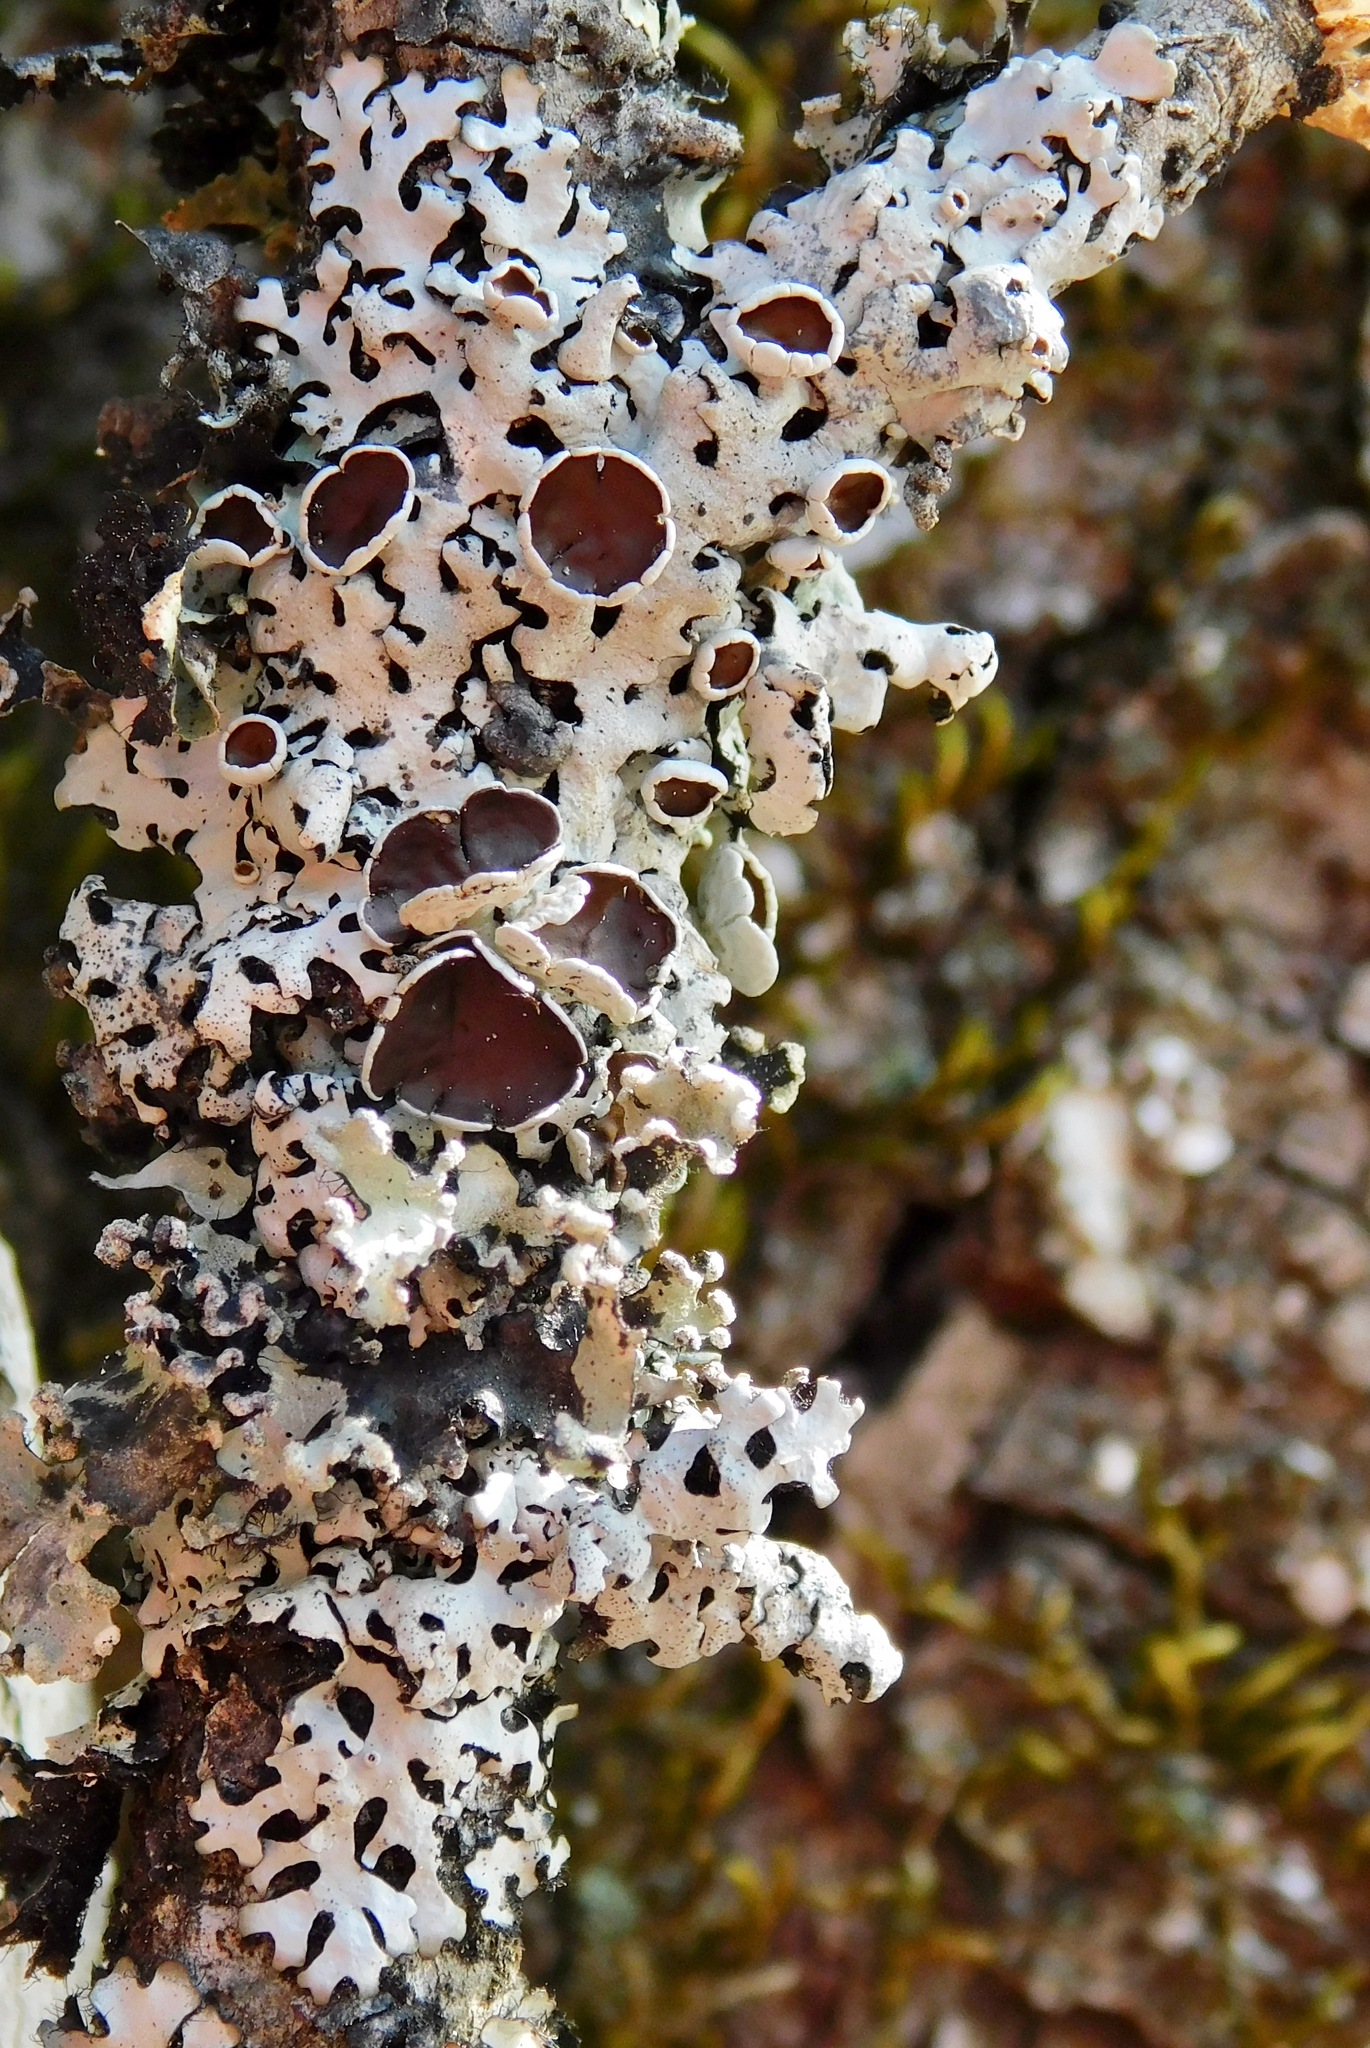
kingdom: Fungi
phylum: Ascomycota
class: Lecanoromycetes
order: Lecanorales
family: Parmeliaceae
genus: Hypotrachyna
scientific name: Hypotrachyna livida
